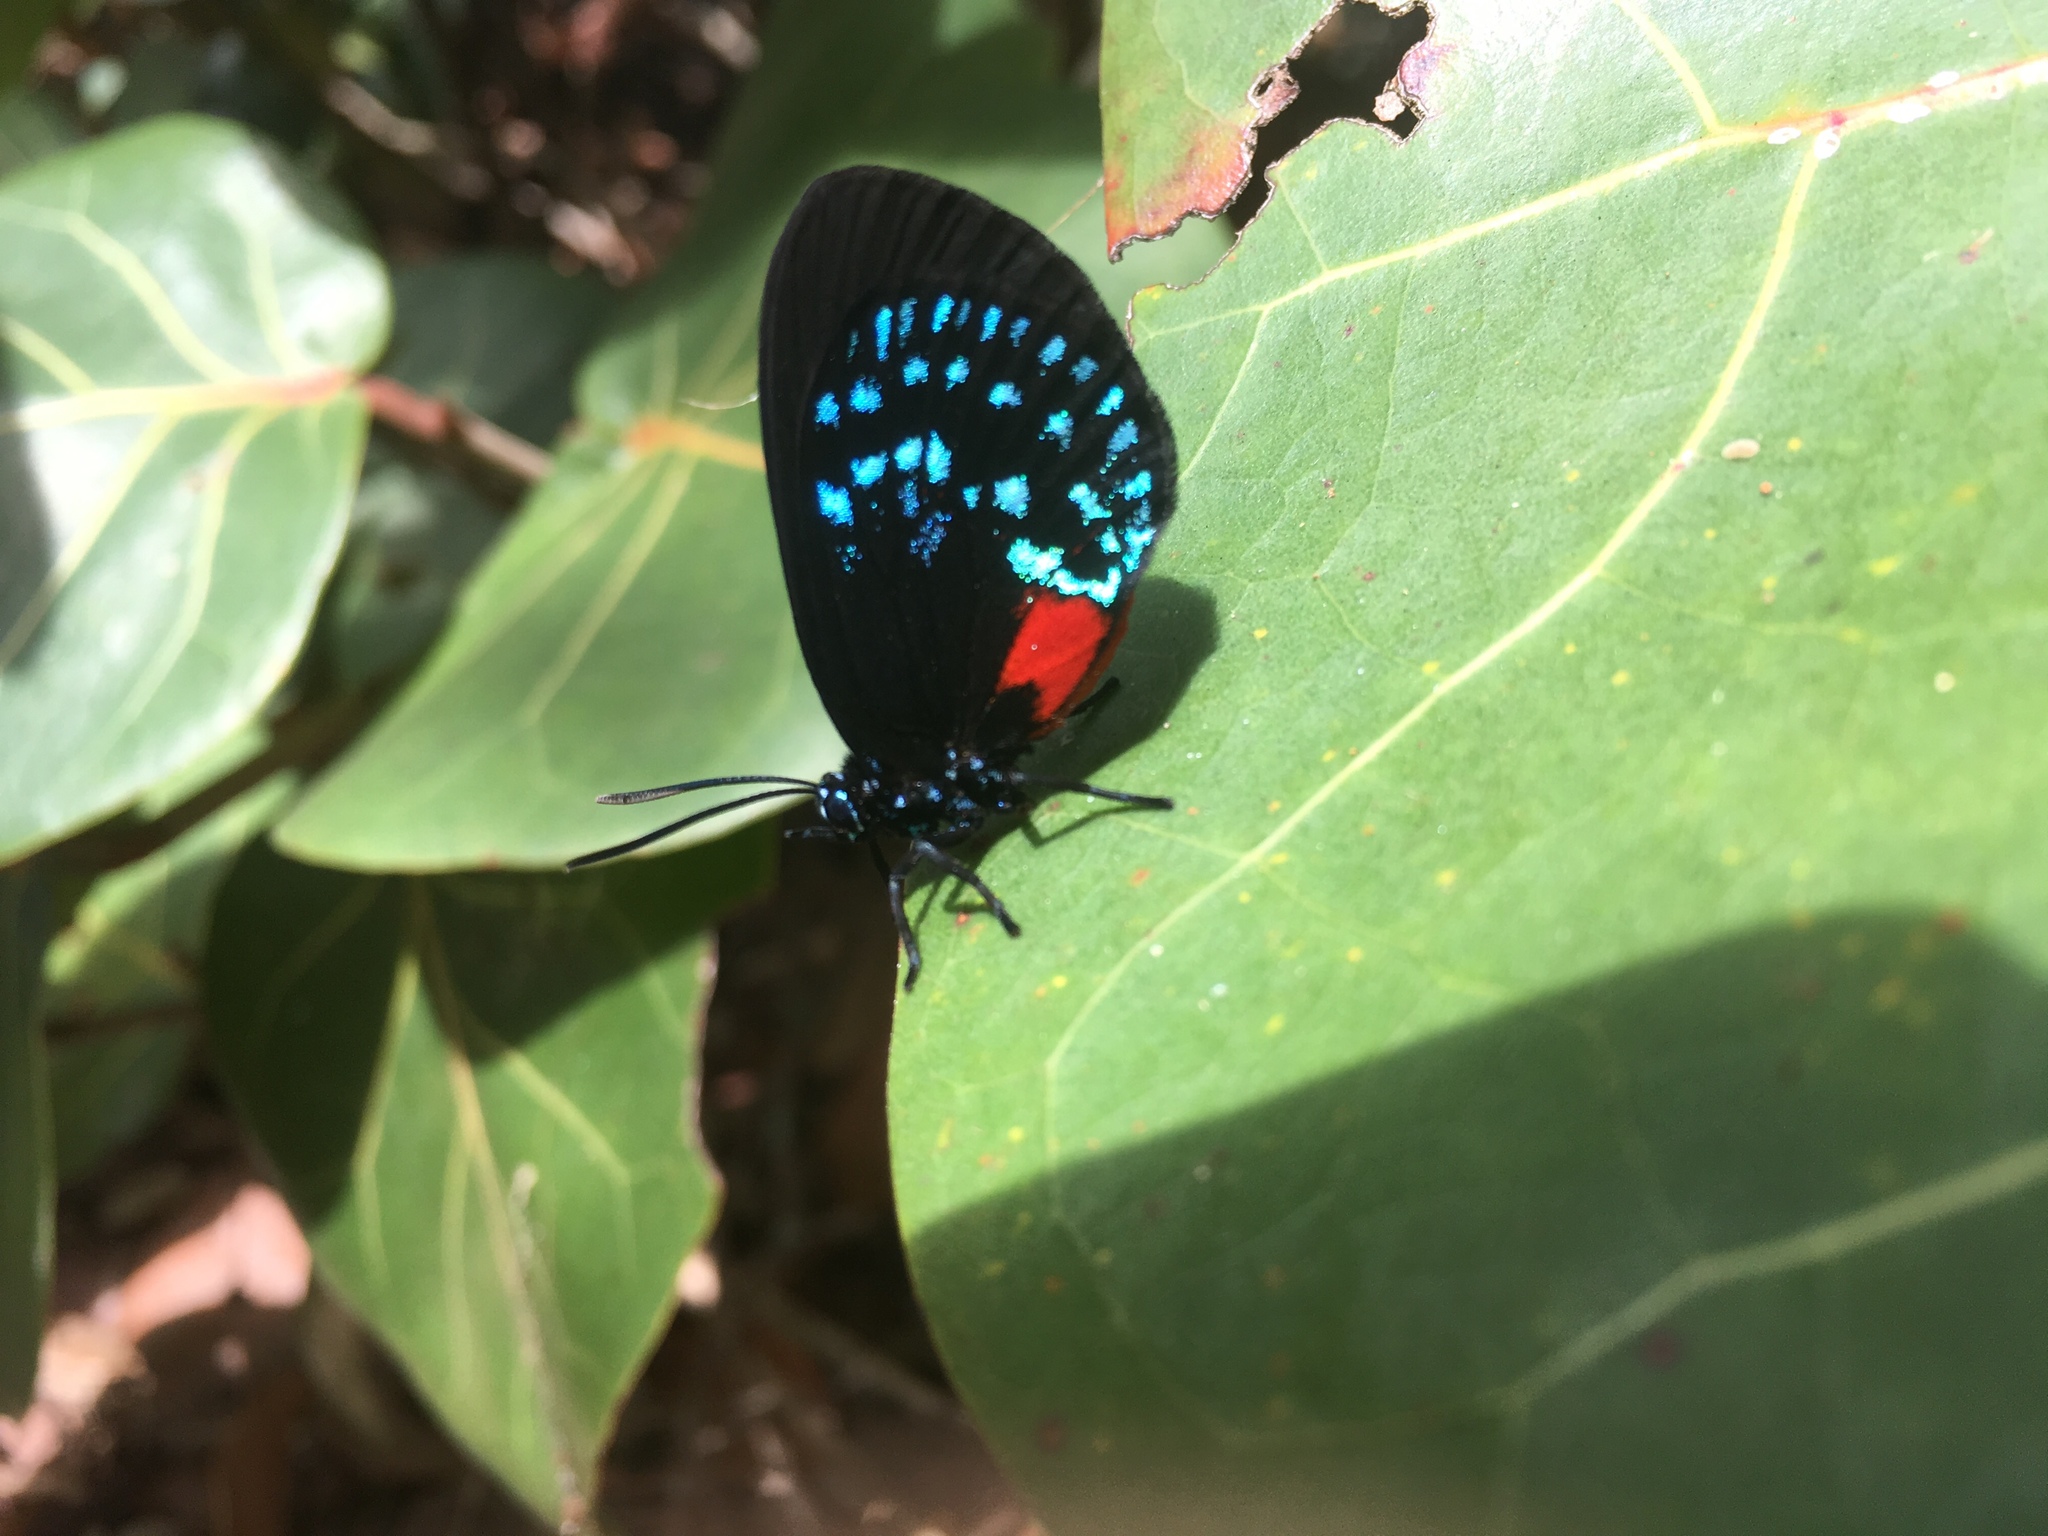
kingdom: Animalia
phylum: Arthropoda
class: Insecta
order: Lepidoptera
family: Lycaenidae
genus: Eumaeus
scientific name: Eumaeus atala
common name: Atala
